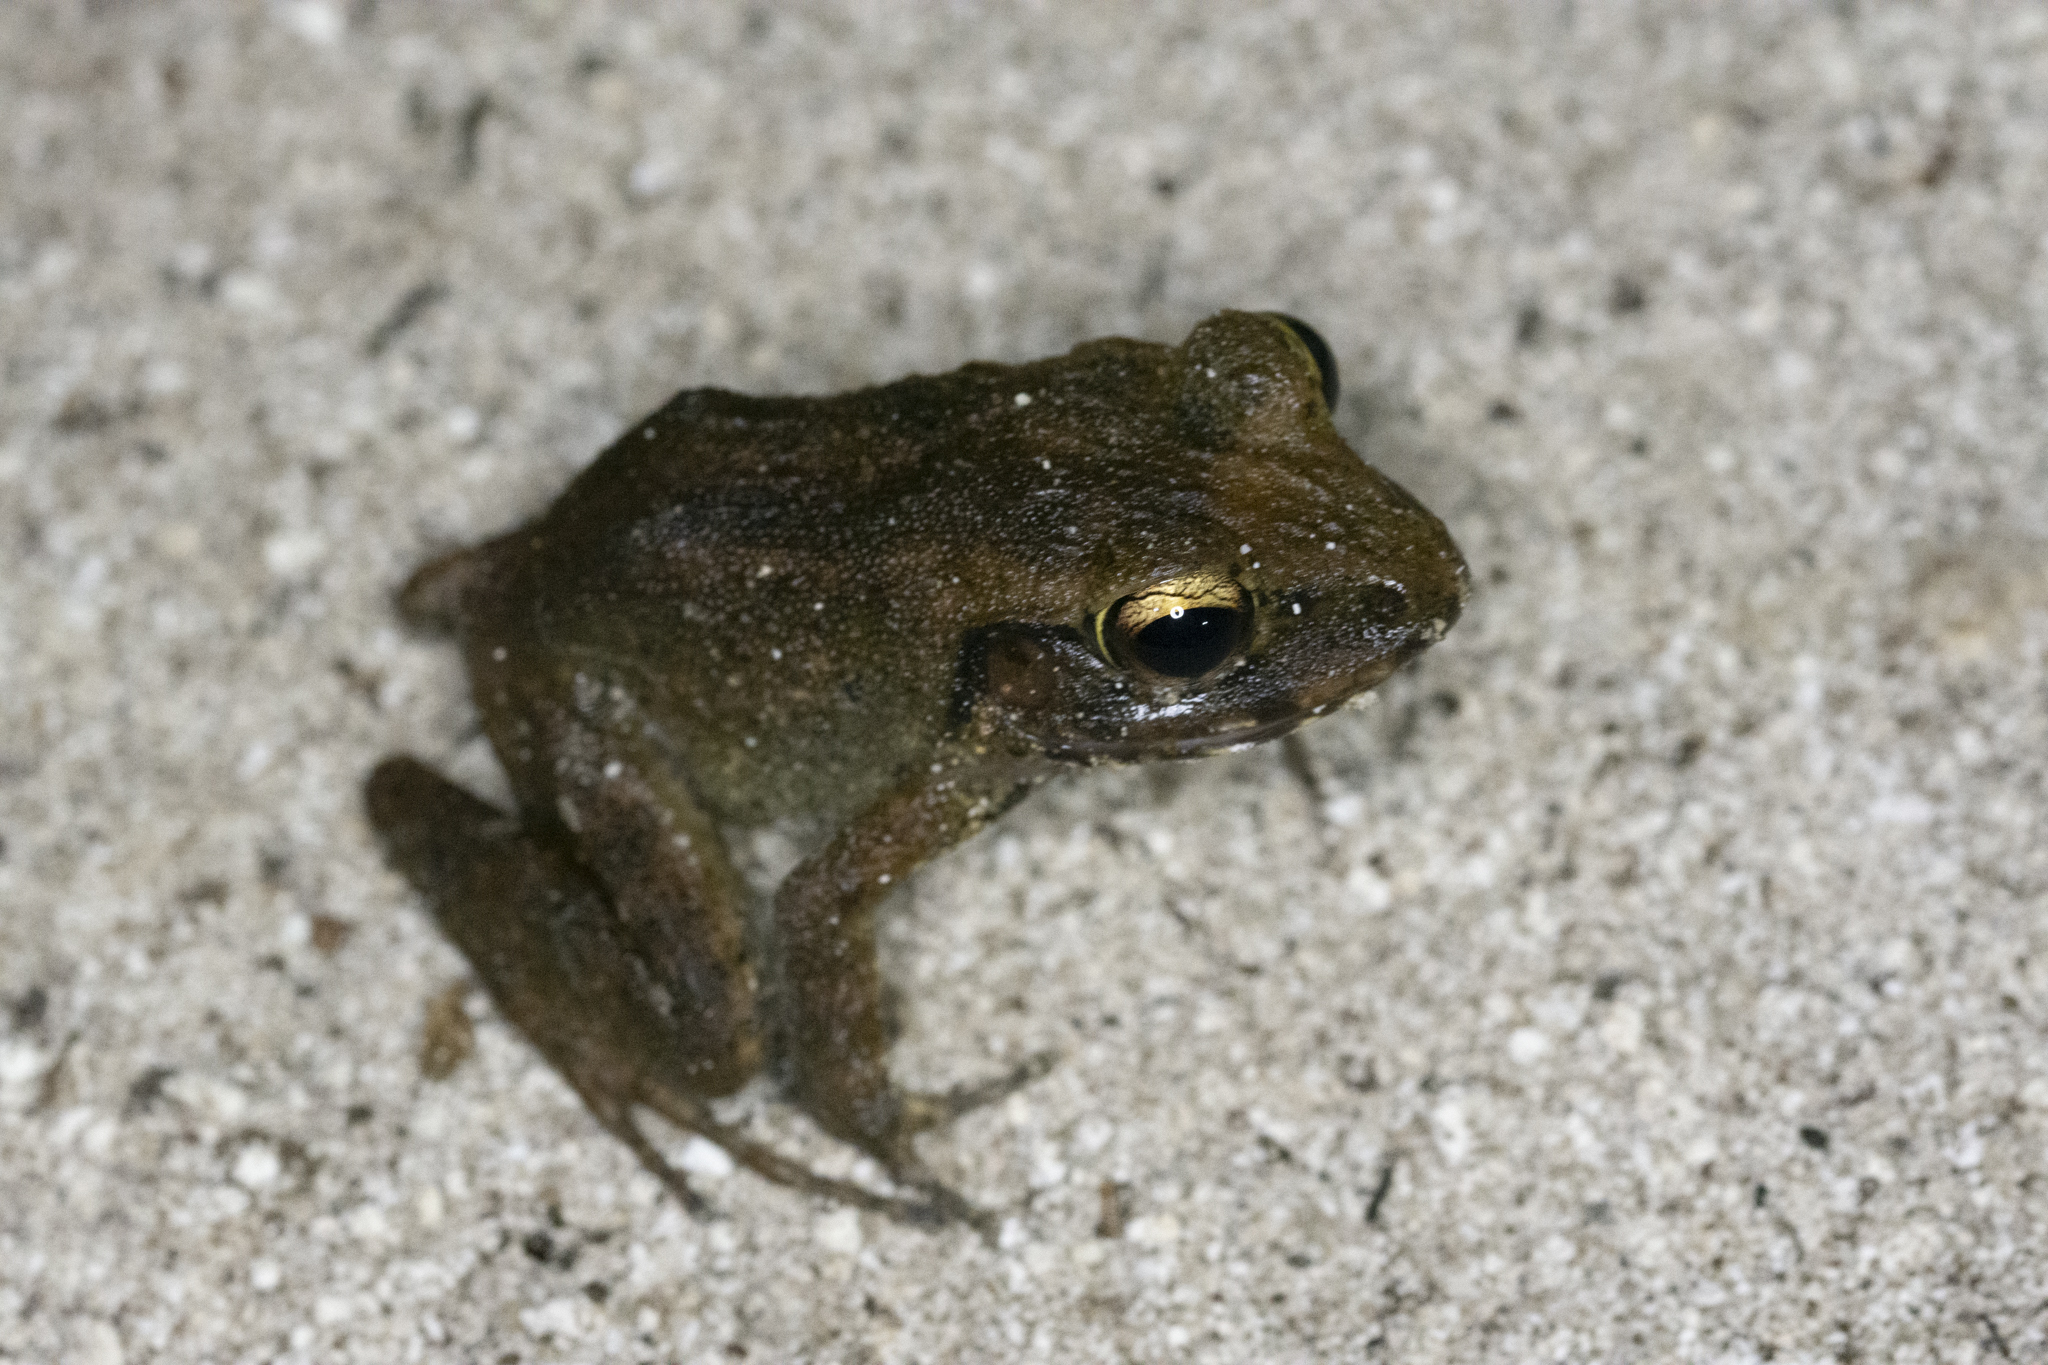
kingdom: Animalia
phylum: Chordata
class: Amphibia
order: Anura
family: Ceratobatrachidae
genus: Cornufer
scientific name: Cornufer pelewensis
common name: Palau frog
